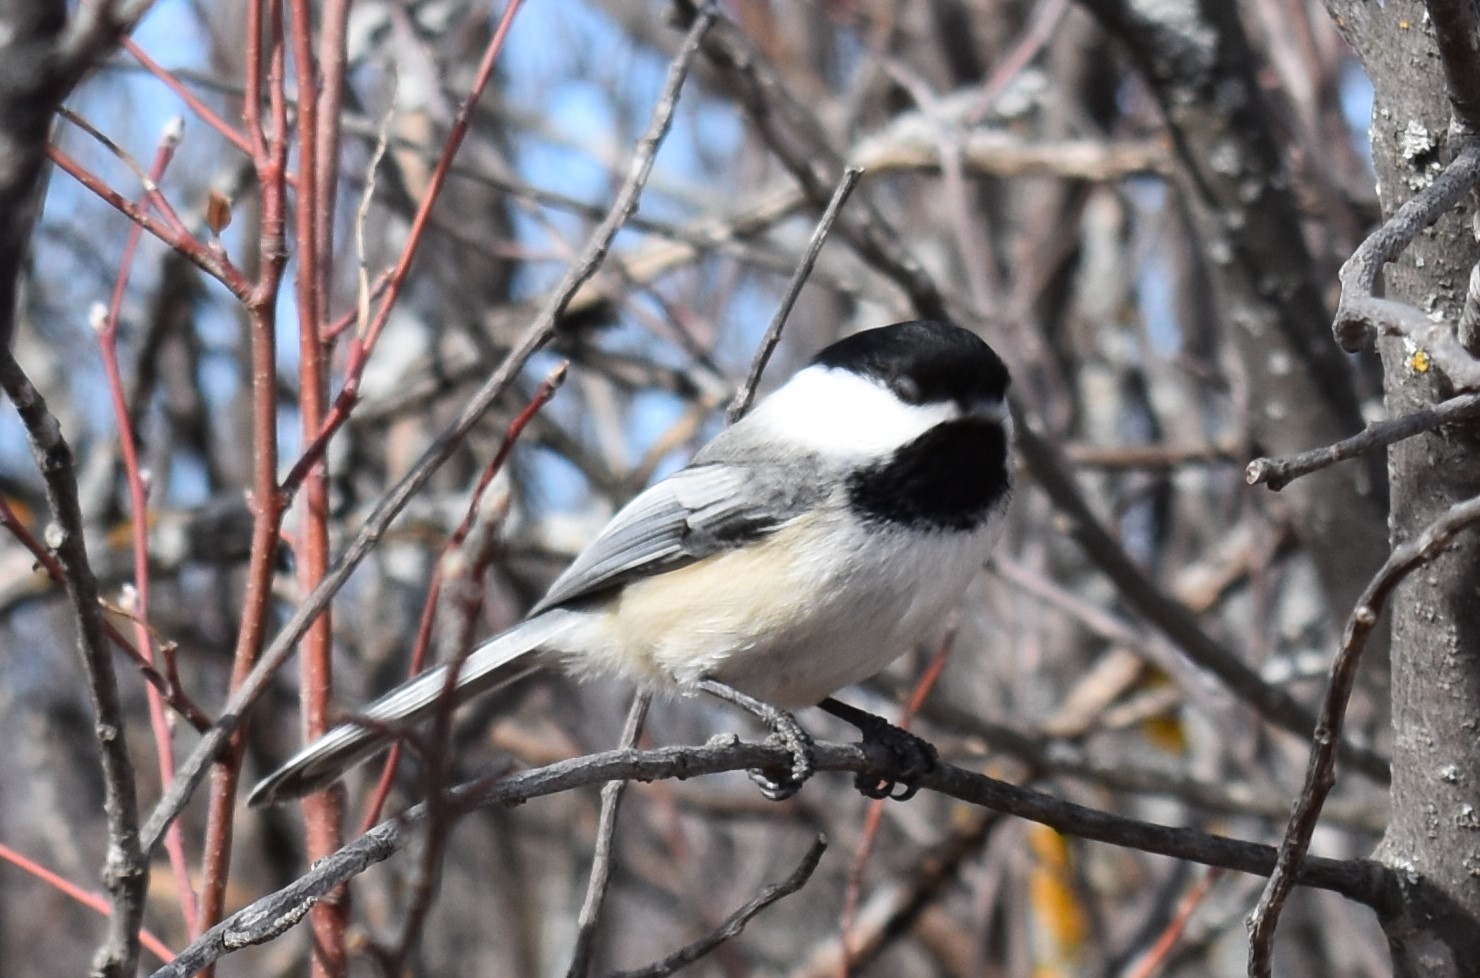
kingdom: Animalia
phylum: Chordata
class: Aves
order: Passeriformes
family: Paridae
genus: Poecile
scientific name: Poecile atricapillus
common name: Black-capped chickadee
